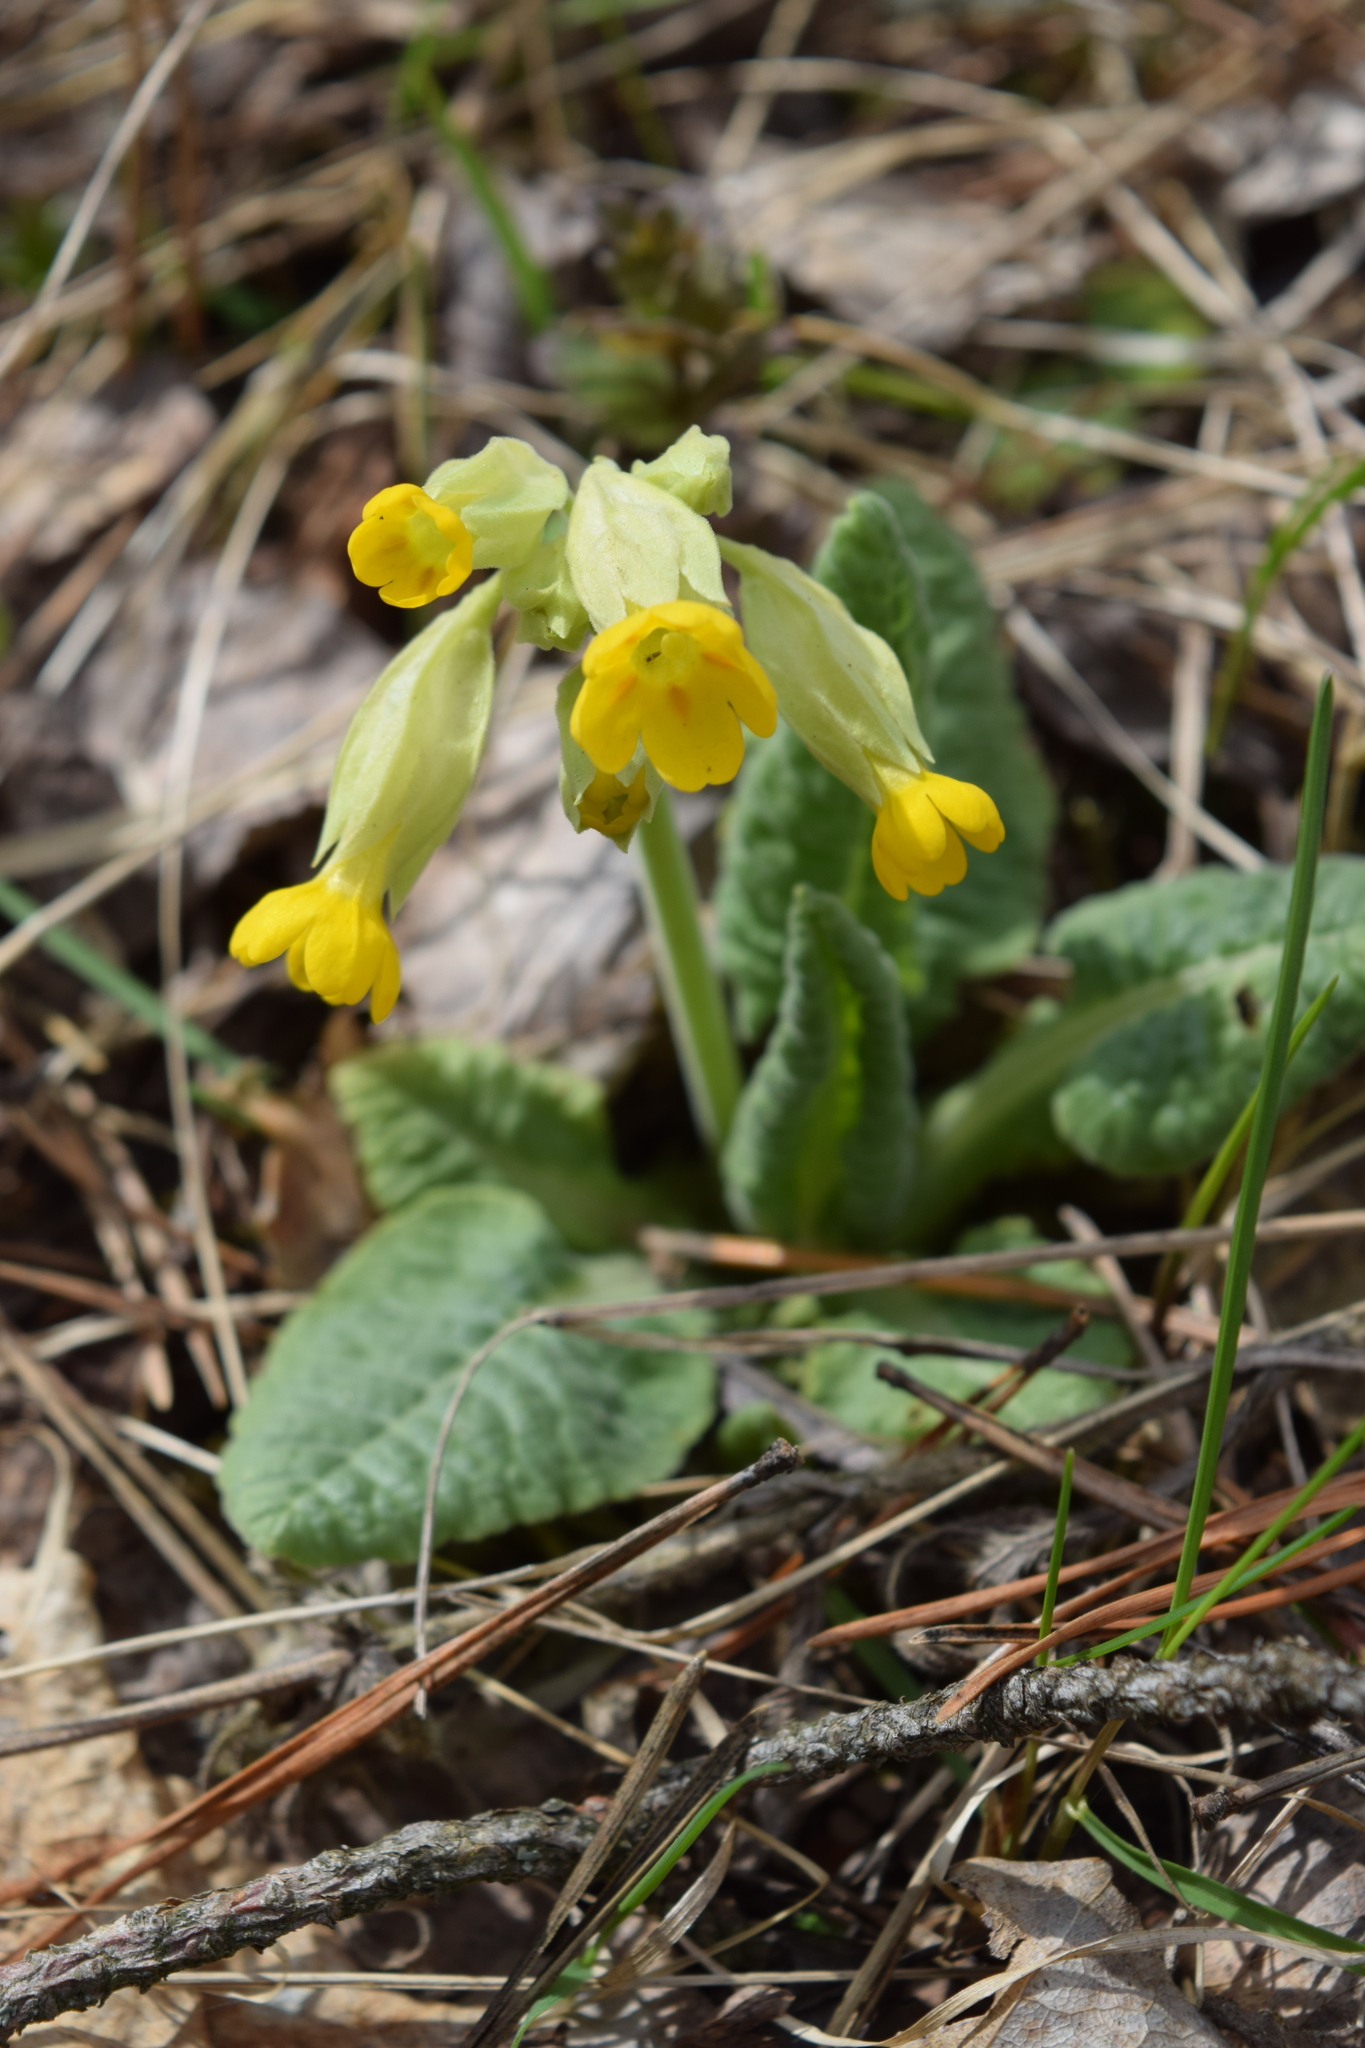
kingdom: Plantae
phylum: Tracheophyta
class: Magnoliopsida
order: Ericales
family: Primulaceae
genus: Primula
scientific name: Primula veris
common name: Cowslip
